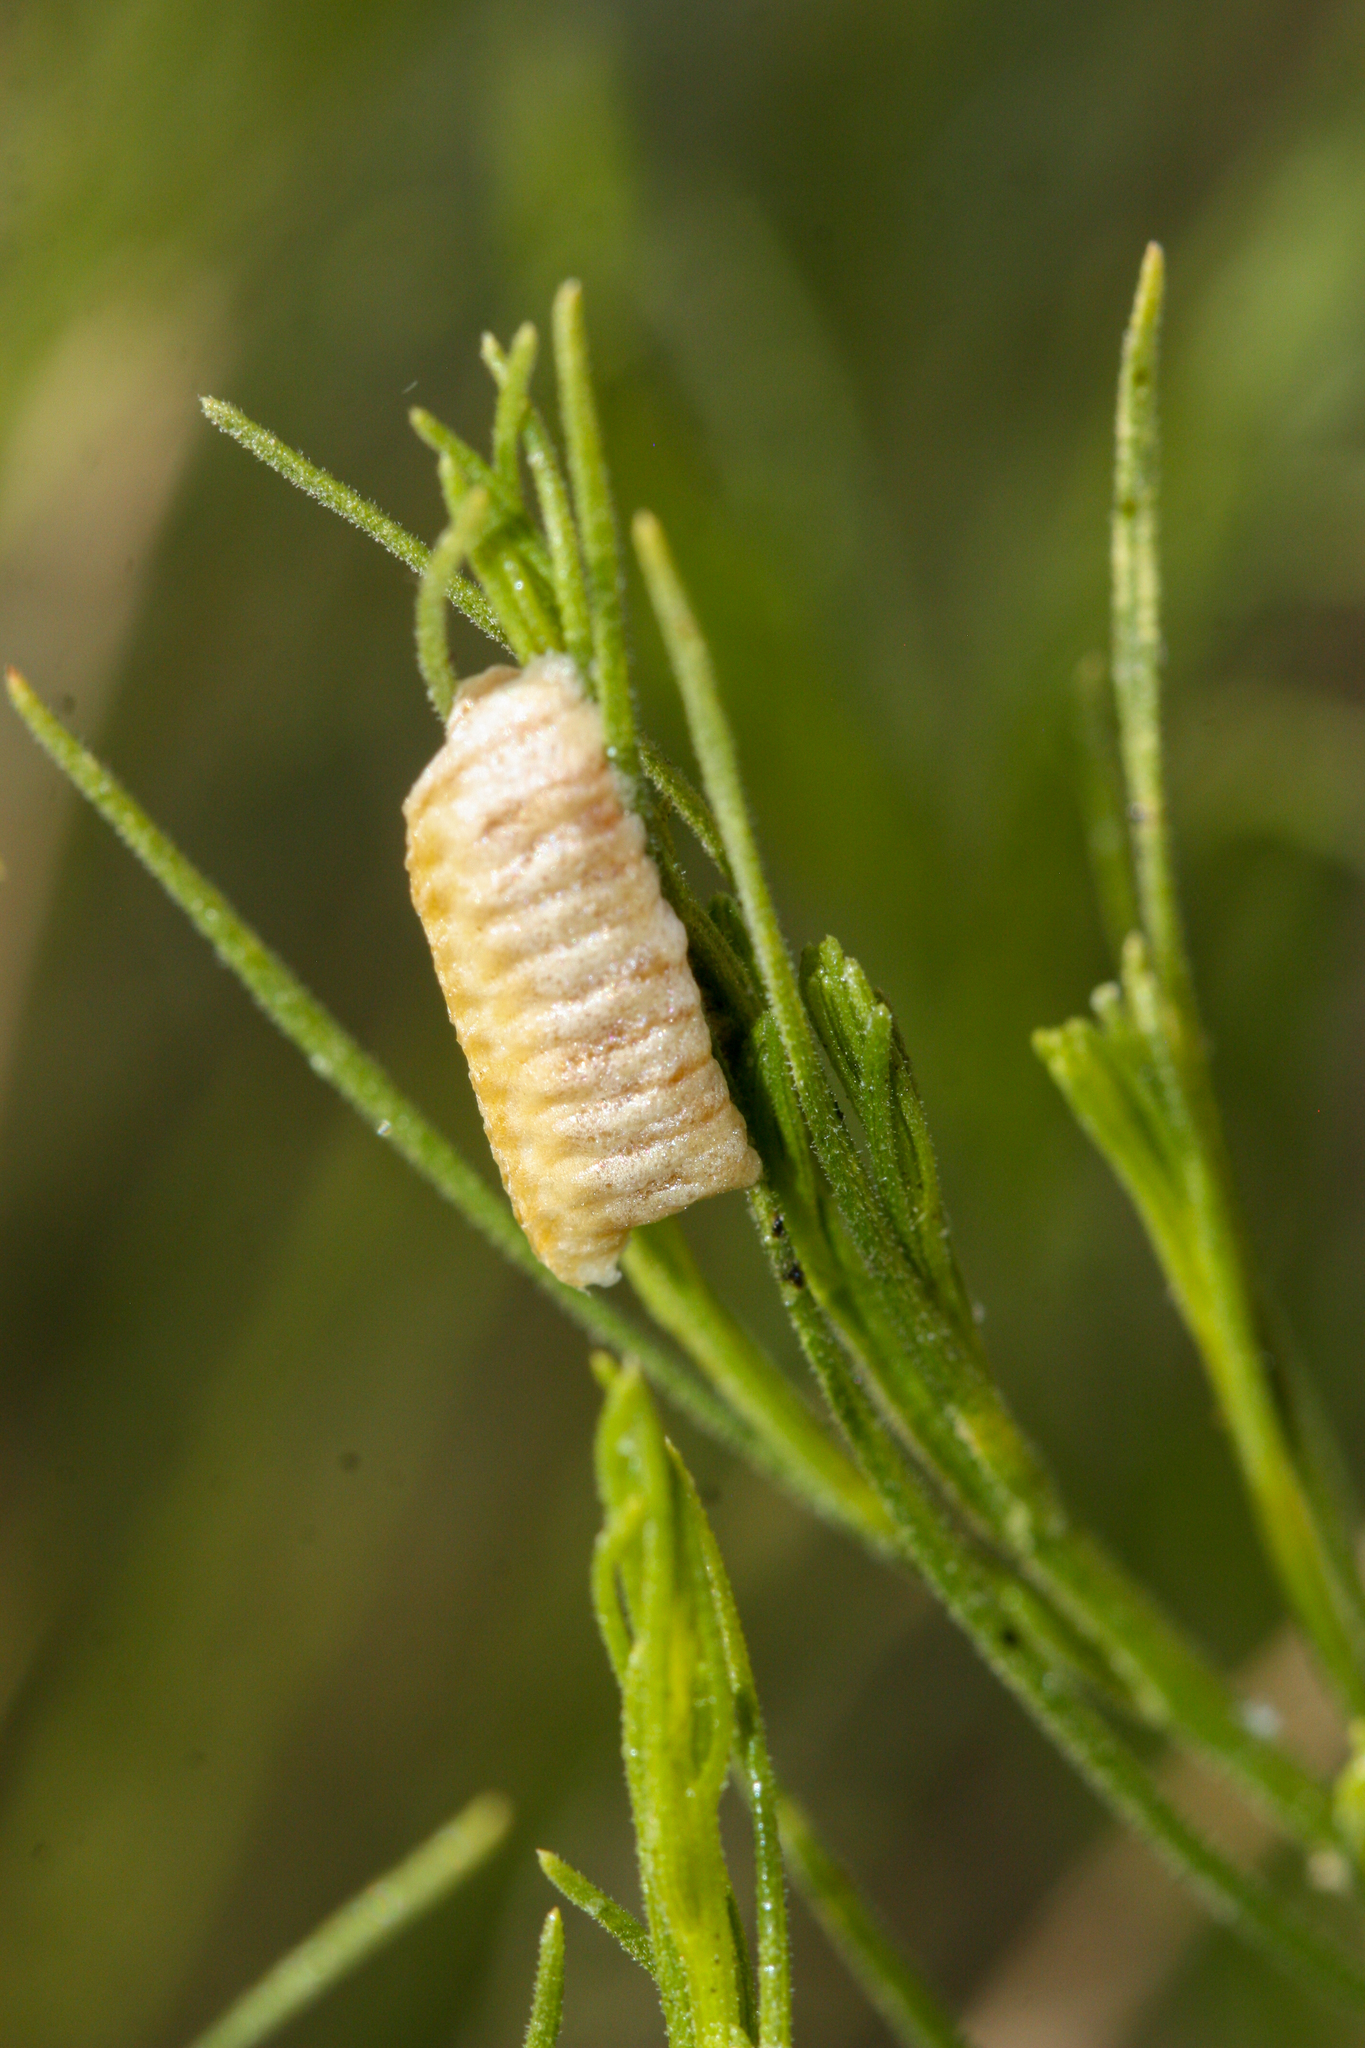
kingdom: Animalia
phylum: Arthropoda
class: Insecta
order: Mantodea
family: Amelidae
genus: Litaneutria
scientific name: Litaneutria ocularis
